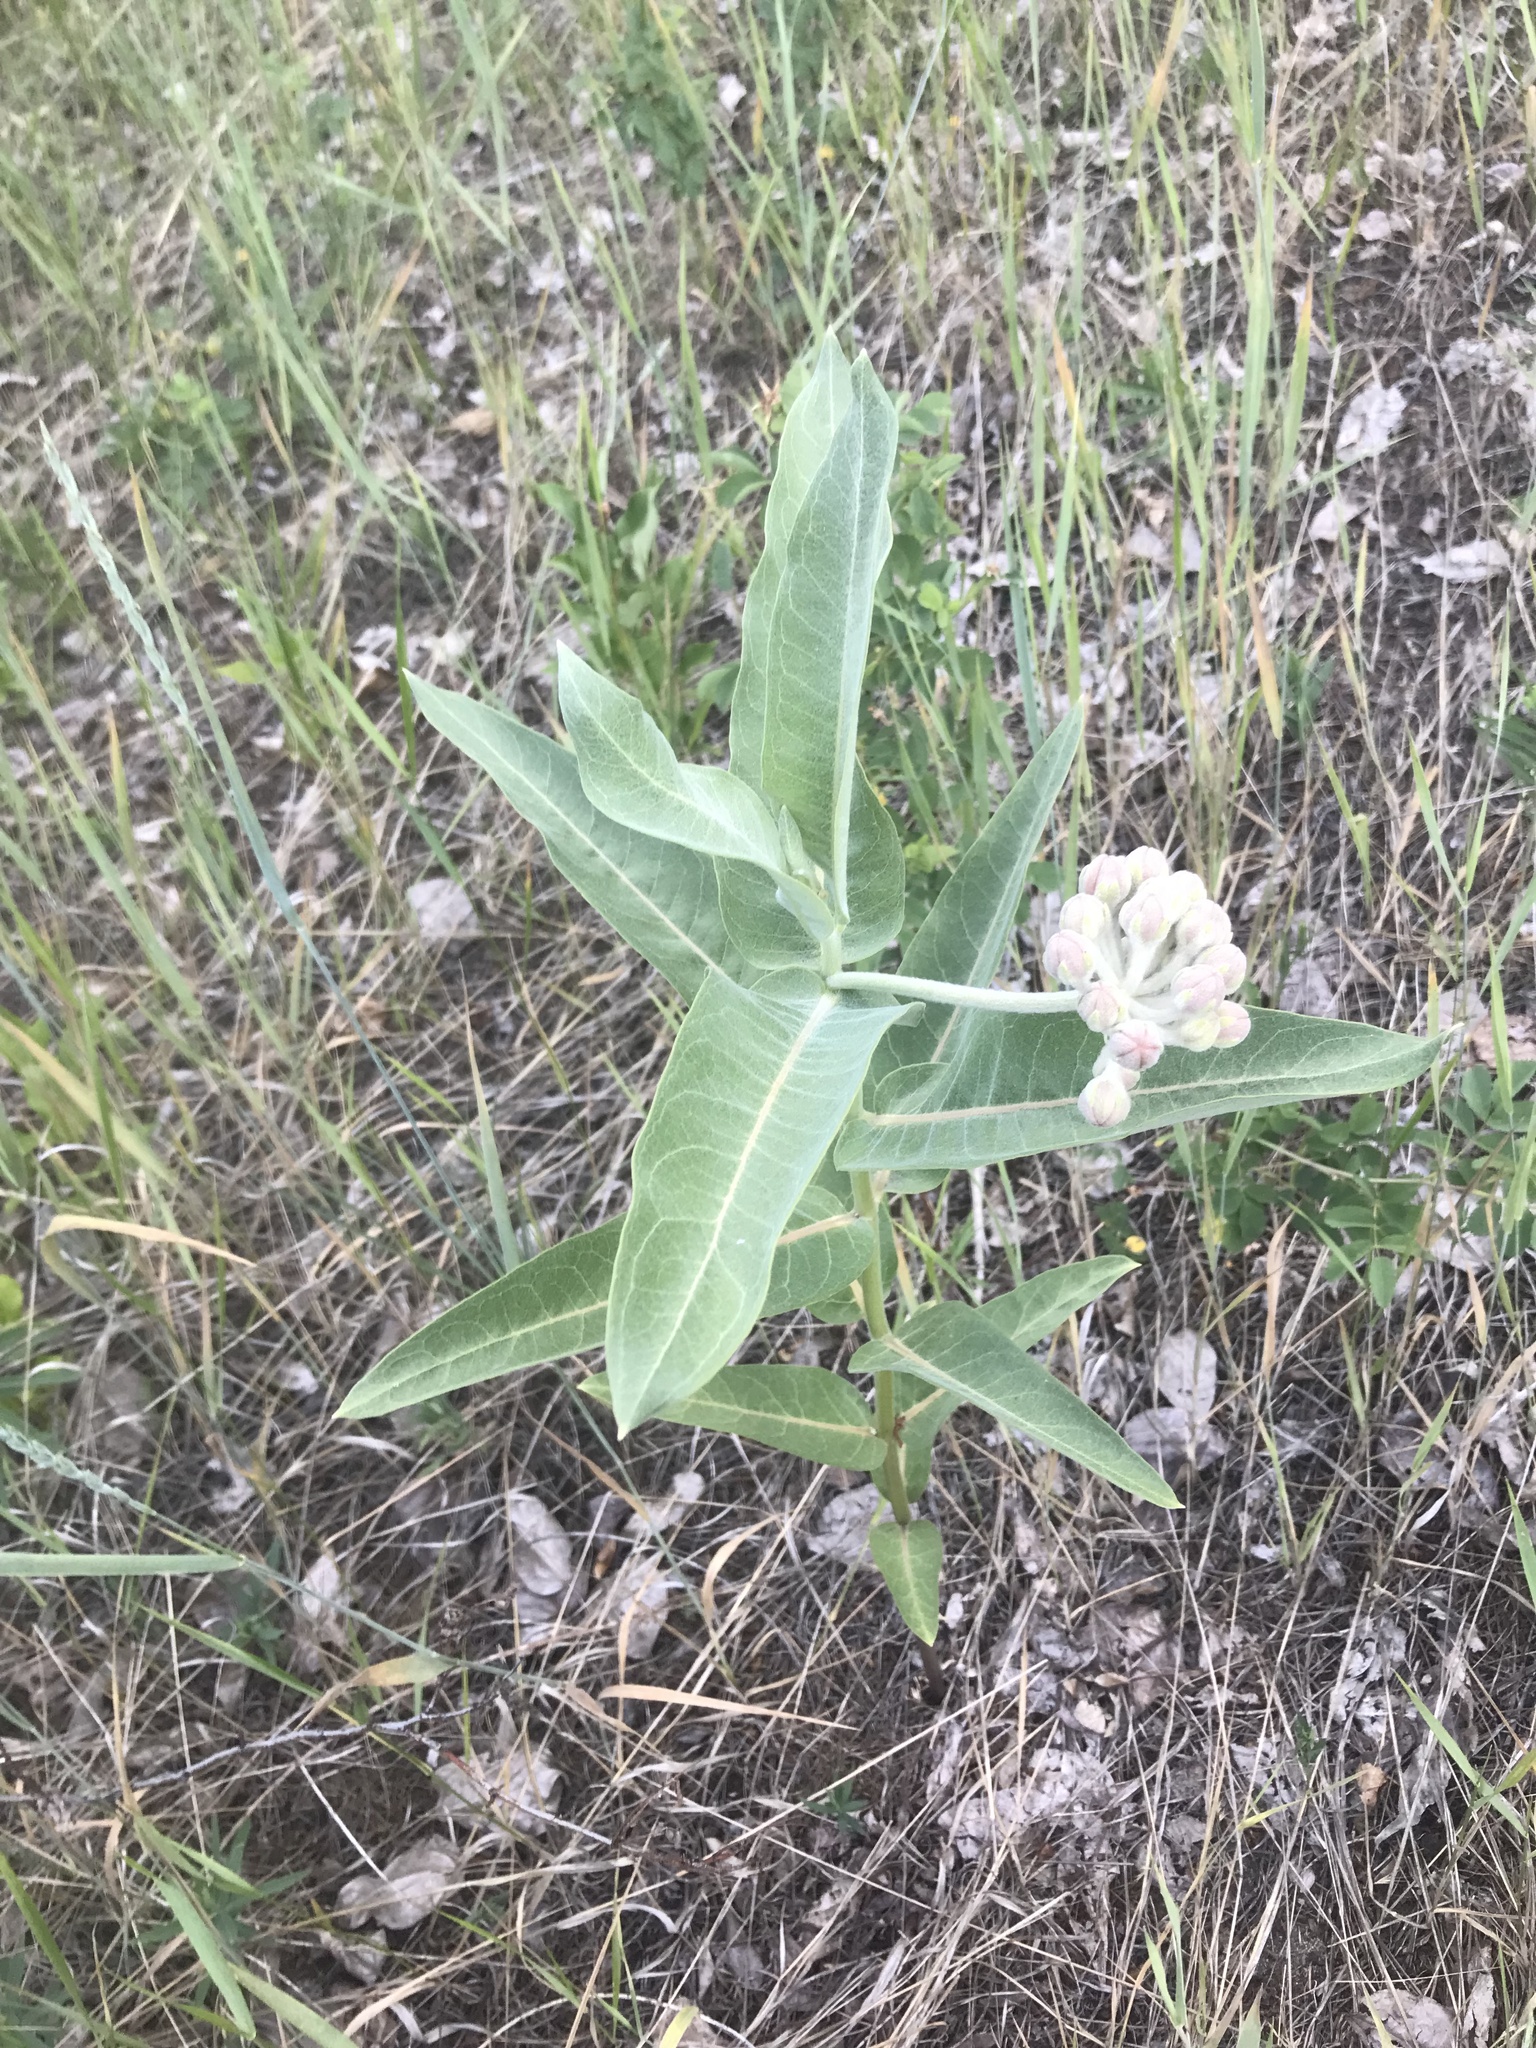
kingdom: Plantae
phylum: Tracheophyta
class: Magnoliopsida
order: Gentianales
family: Apocynaceae
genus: Asclepias
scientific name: Asclepias speciosa
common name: Showy milkweed
